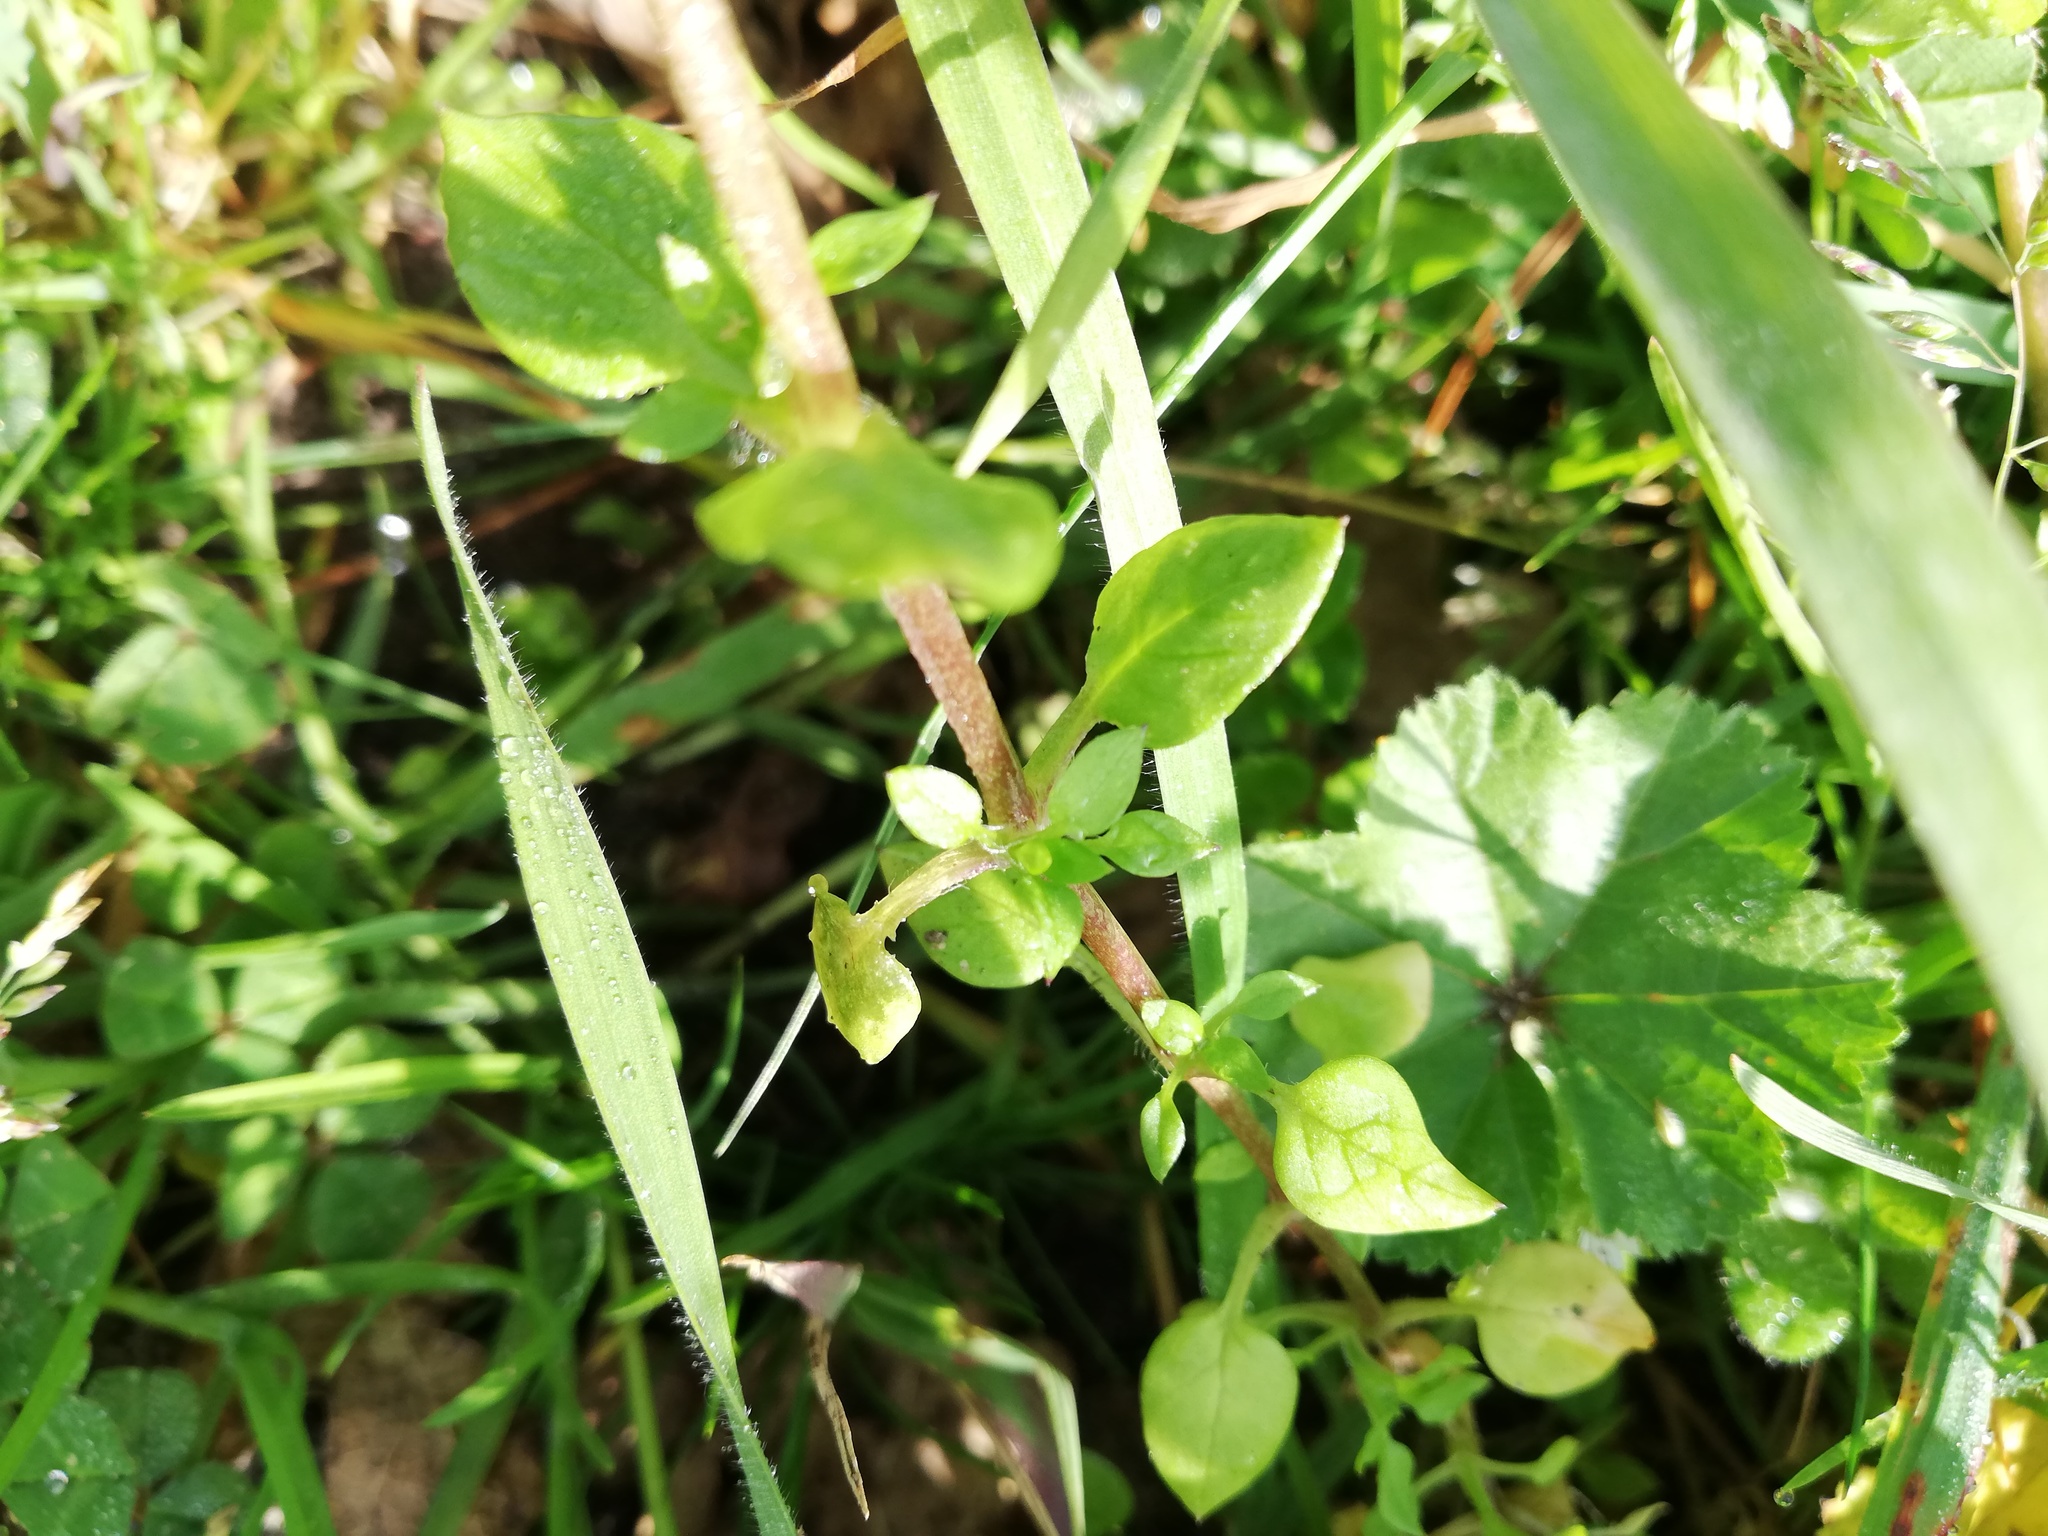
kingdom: Plantae
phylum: Tracheophyta
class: Magnoliopsida
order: Caryophyllales
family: Caryophyllaceae
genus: Stellaria
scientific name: Stellaria media
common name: Common chickweed
